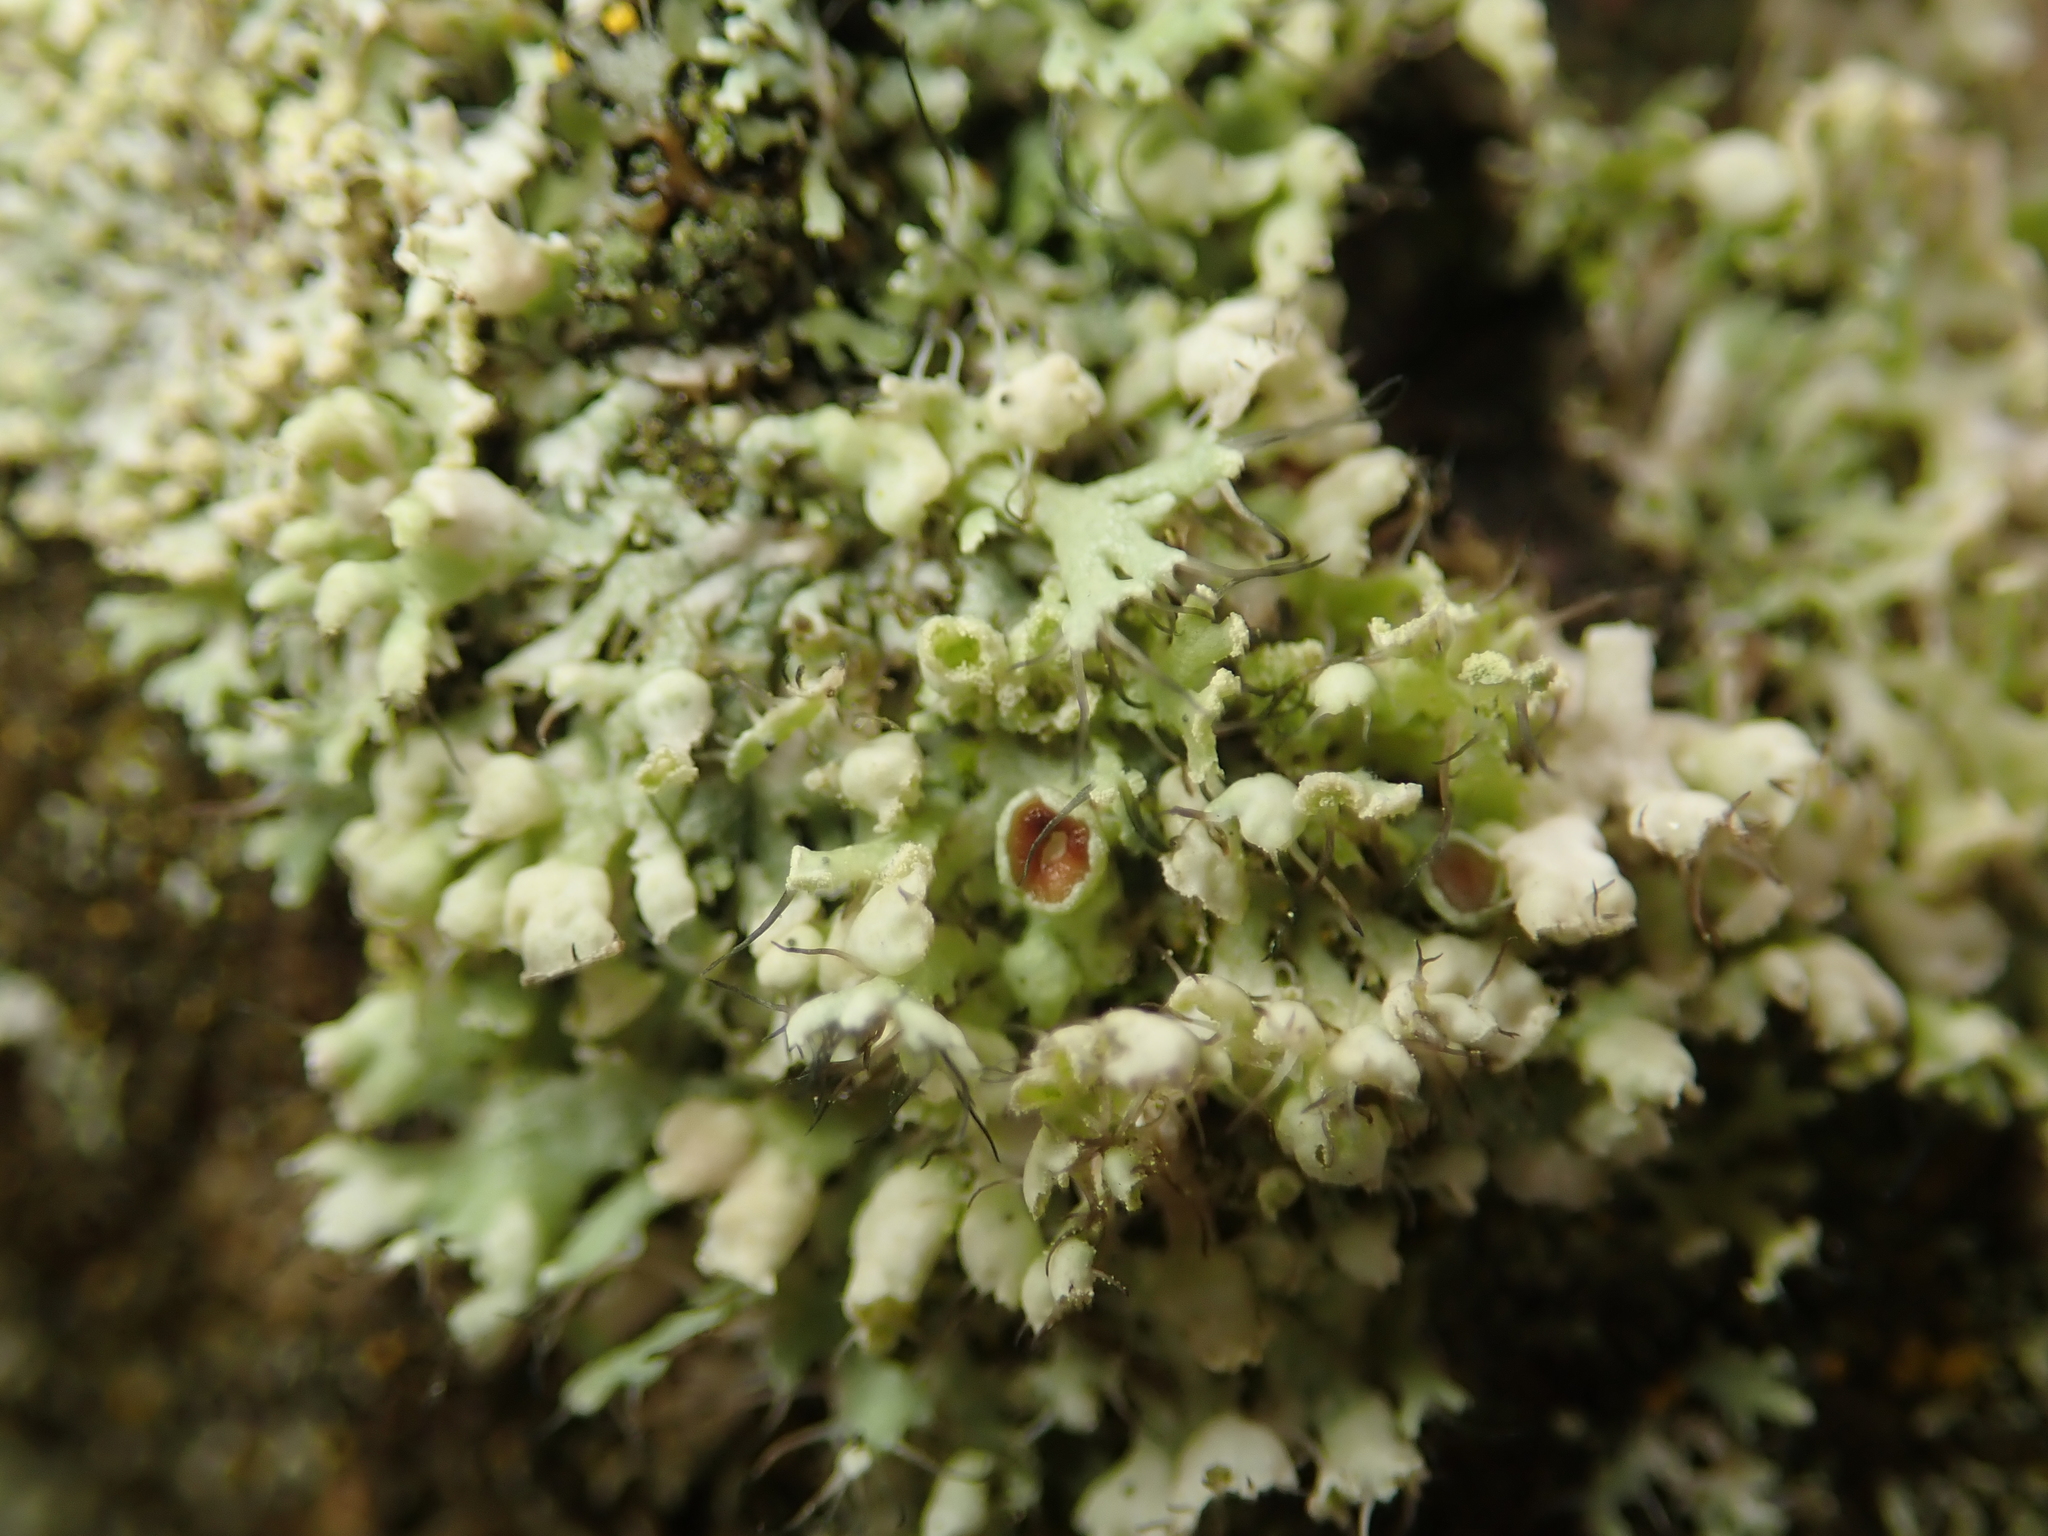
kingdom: Fungi
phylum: Ascomycota
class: Lecanoromycetes
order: Caliciales
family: Physciaceae
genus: Physcia
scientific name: Physcia adscendens
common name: Hooded rosette lichen
